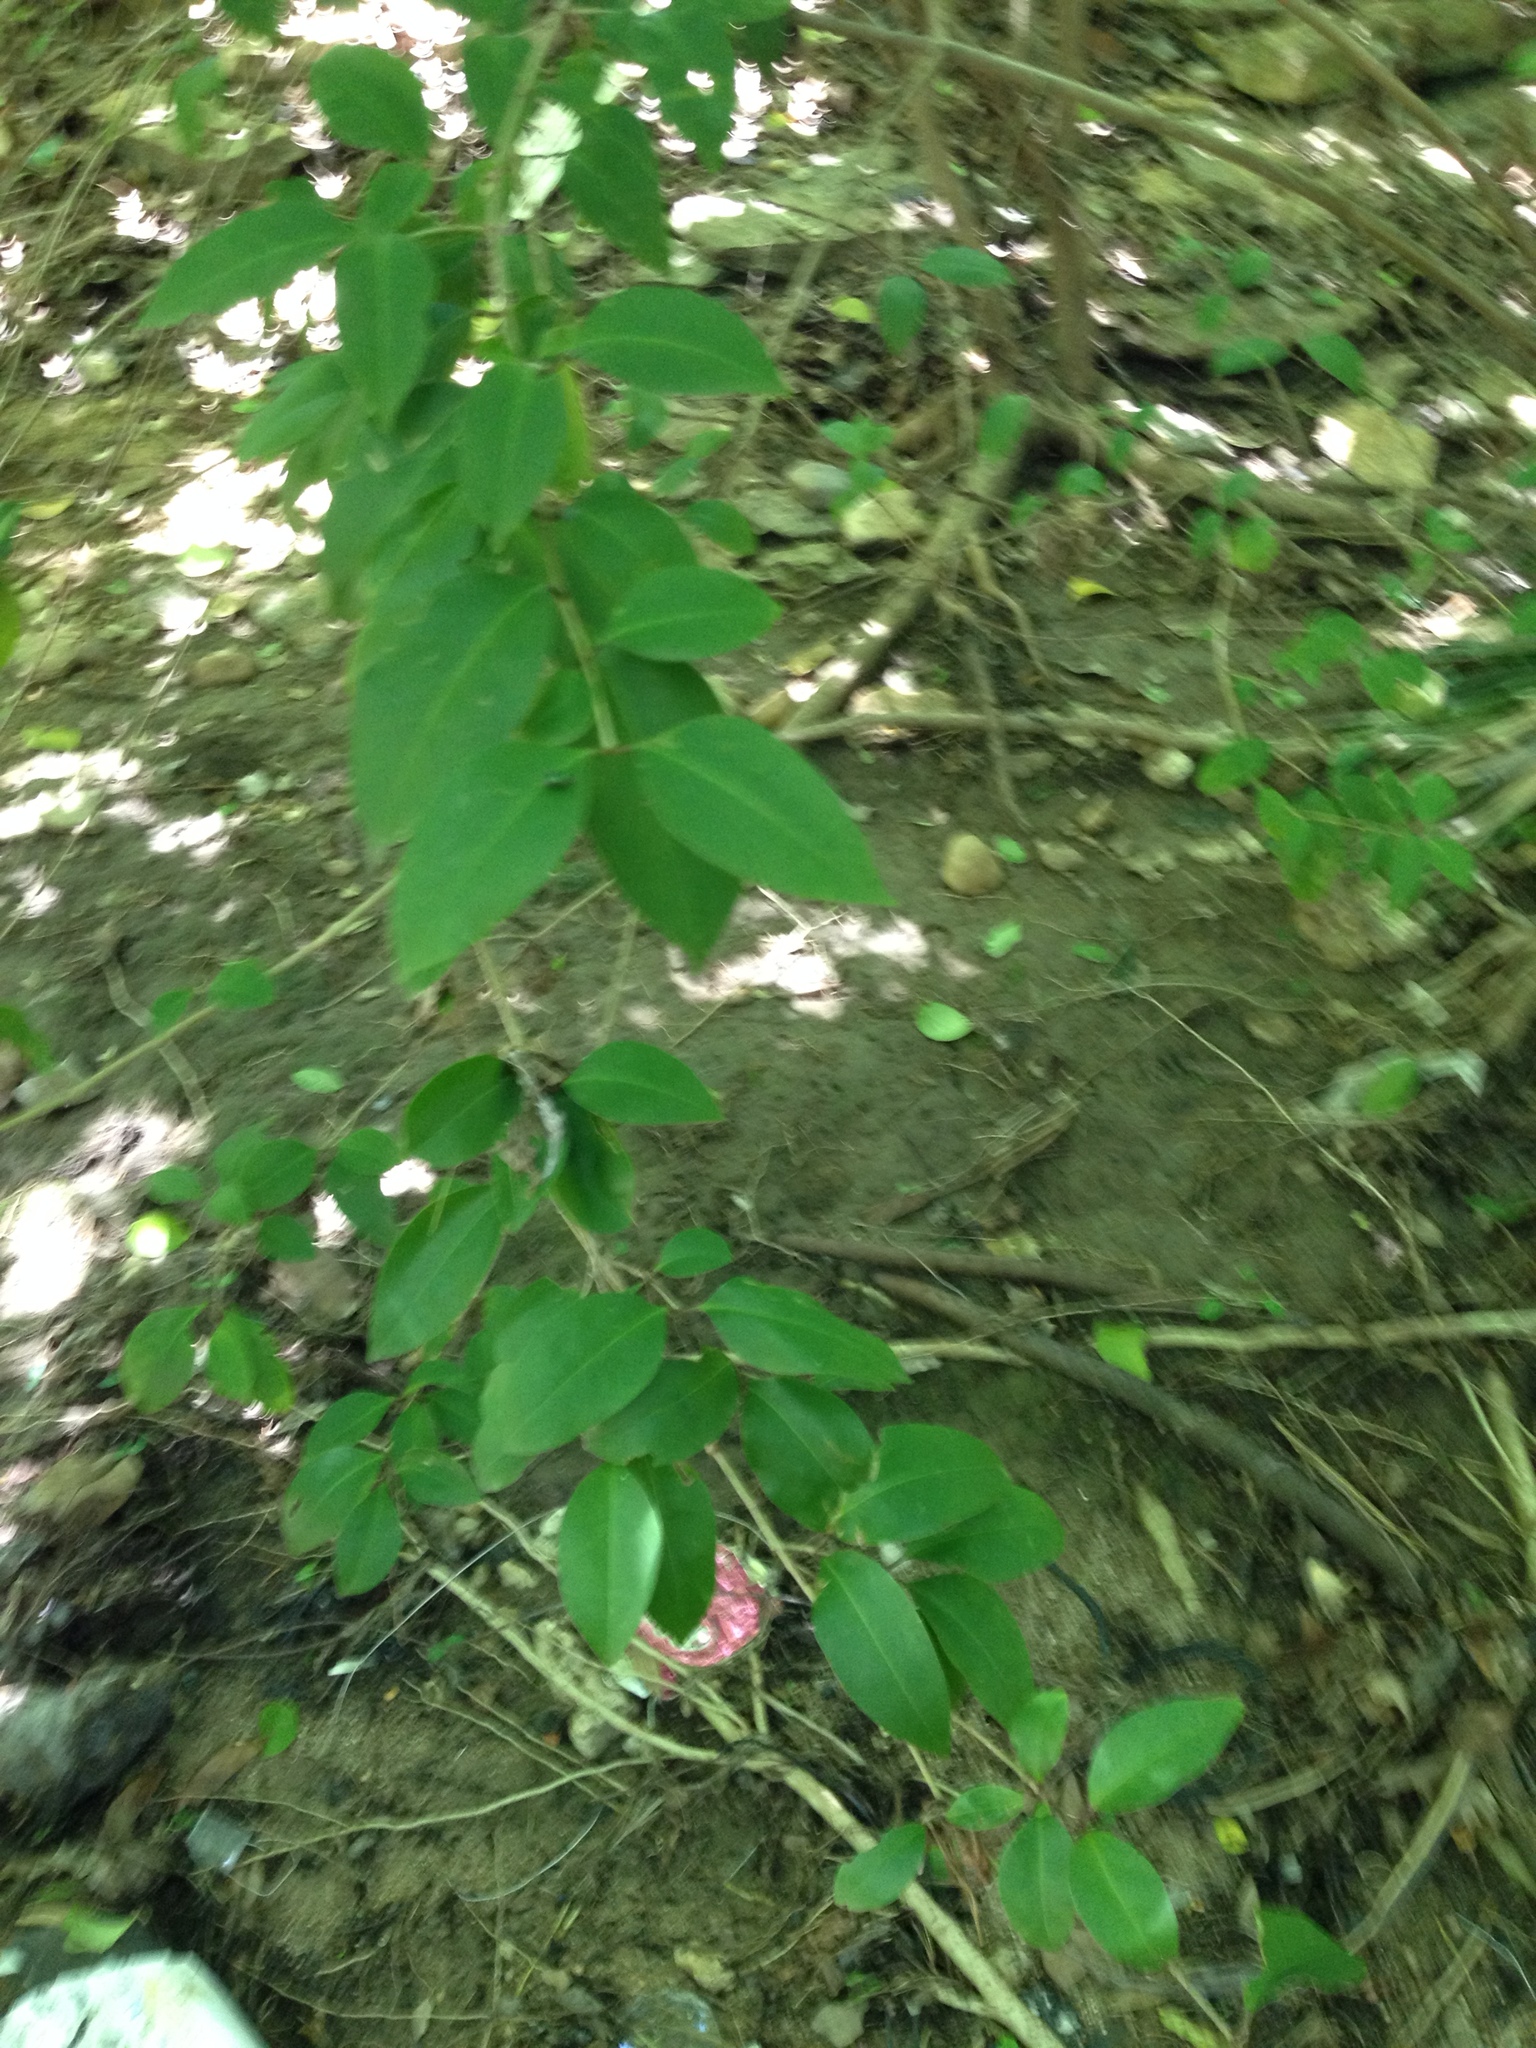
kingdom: Plantae
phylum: Tracheophyta
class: Magnoliopsida
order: Lamiales
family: Oleaceae
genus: Ligustrum
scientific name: Ligustrum lucidum
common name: Glossy privet
